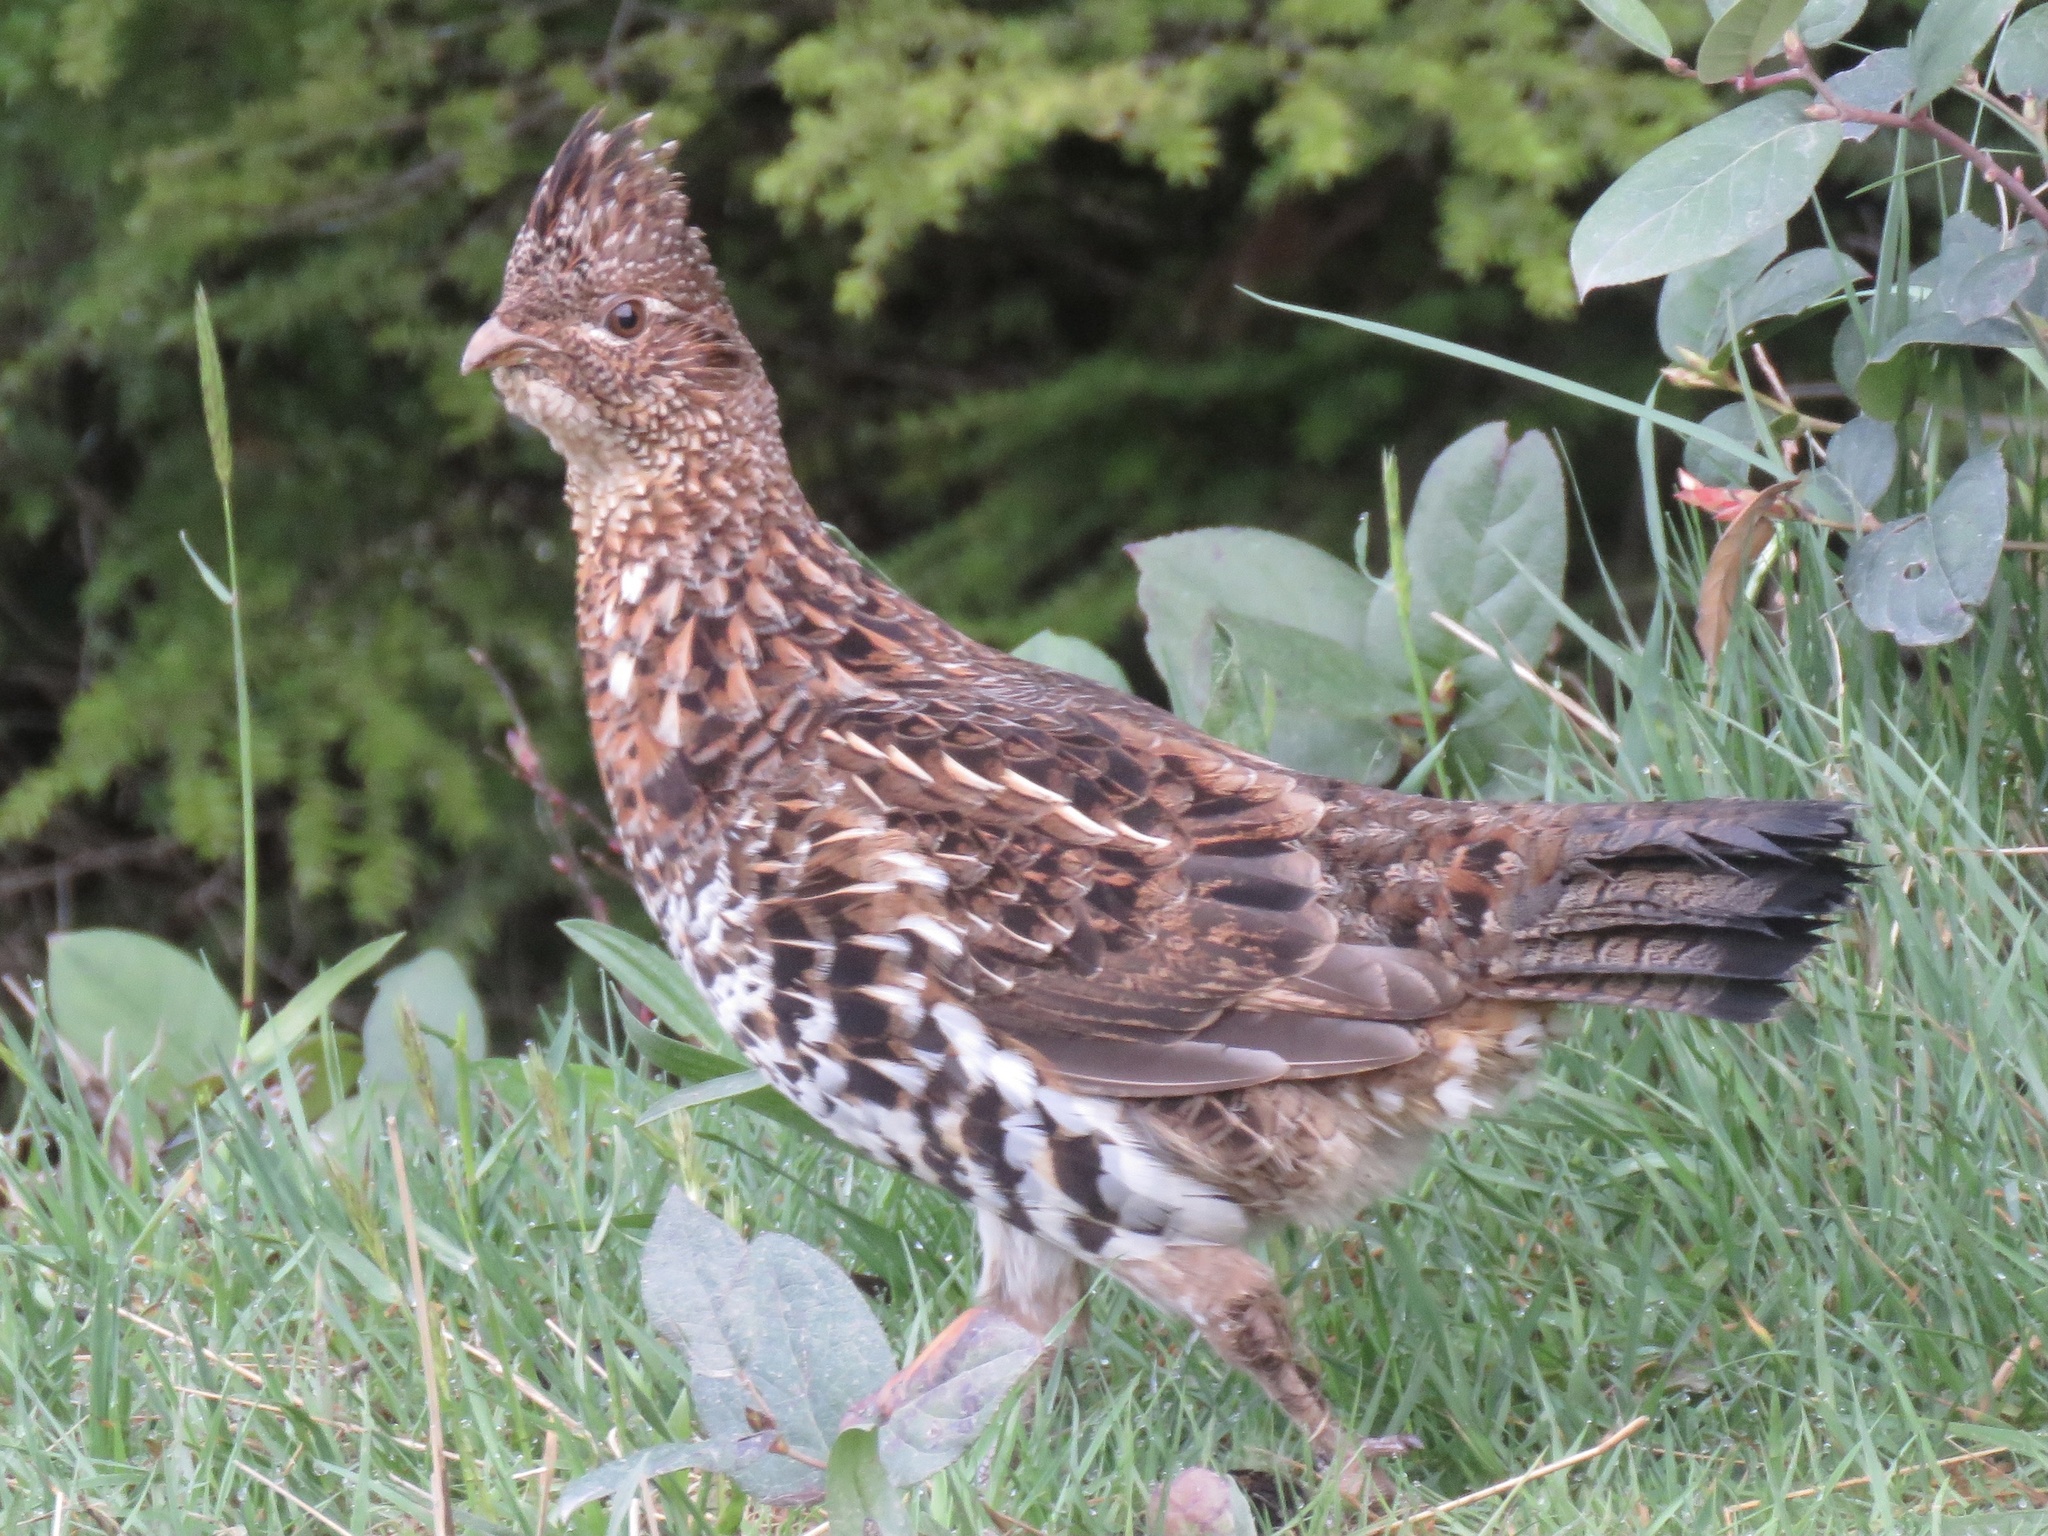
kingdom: Animalia
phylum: Chordata
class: Aves
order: Galliformes
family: Phasianidae
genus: Bonasa
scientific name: Bonasa umbellus
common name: Ruffed grouse
